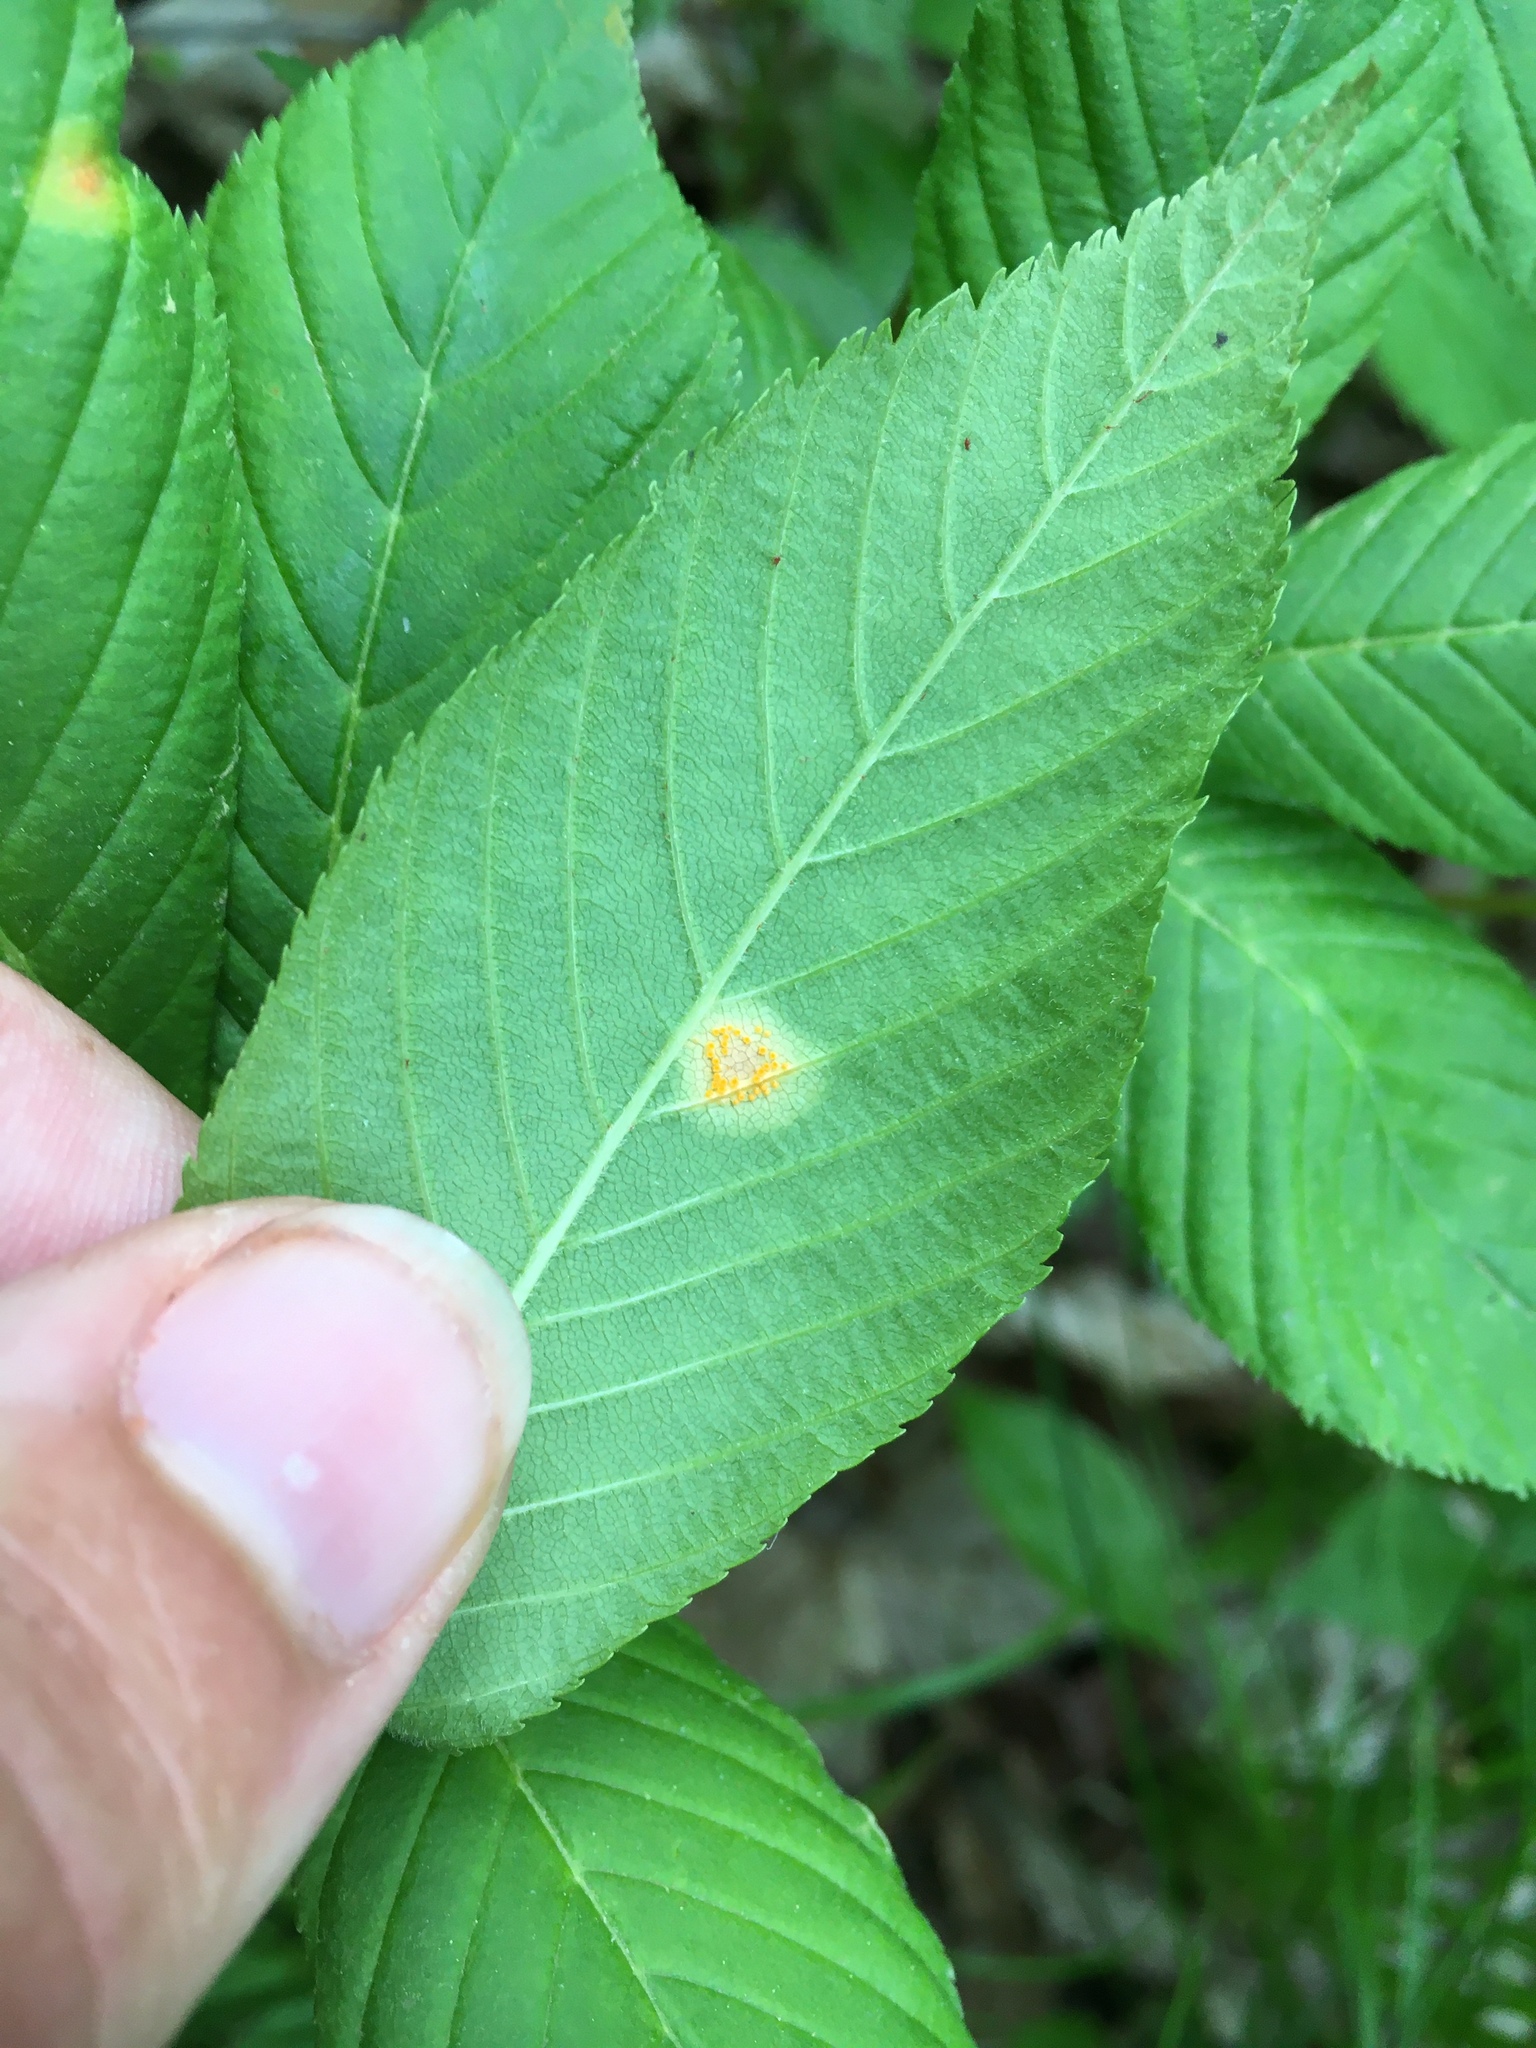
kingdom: Fungi
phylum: Basidiomycota
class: Pucciniomycetes
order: Pucciniales
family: Pucciniaceae
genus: Puccinia
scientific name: Puccinia andropogonis
